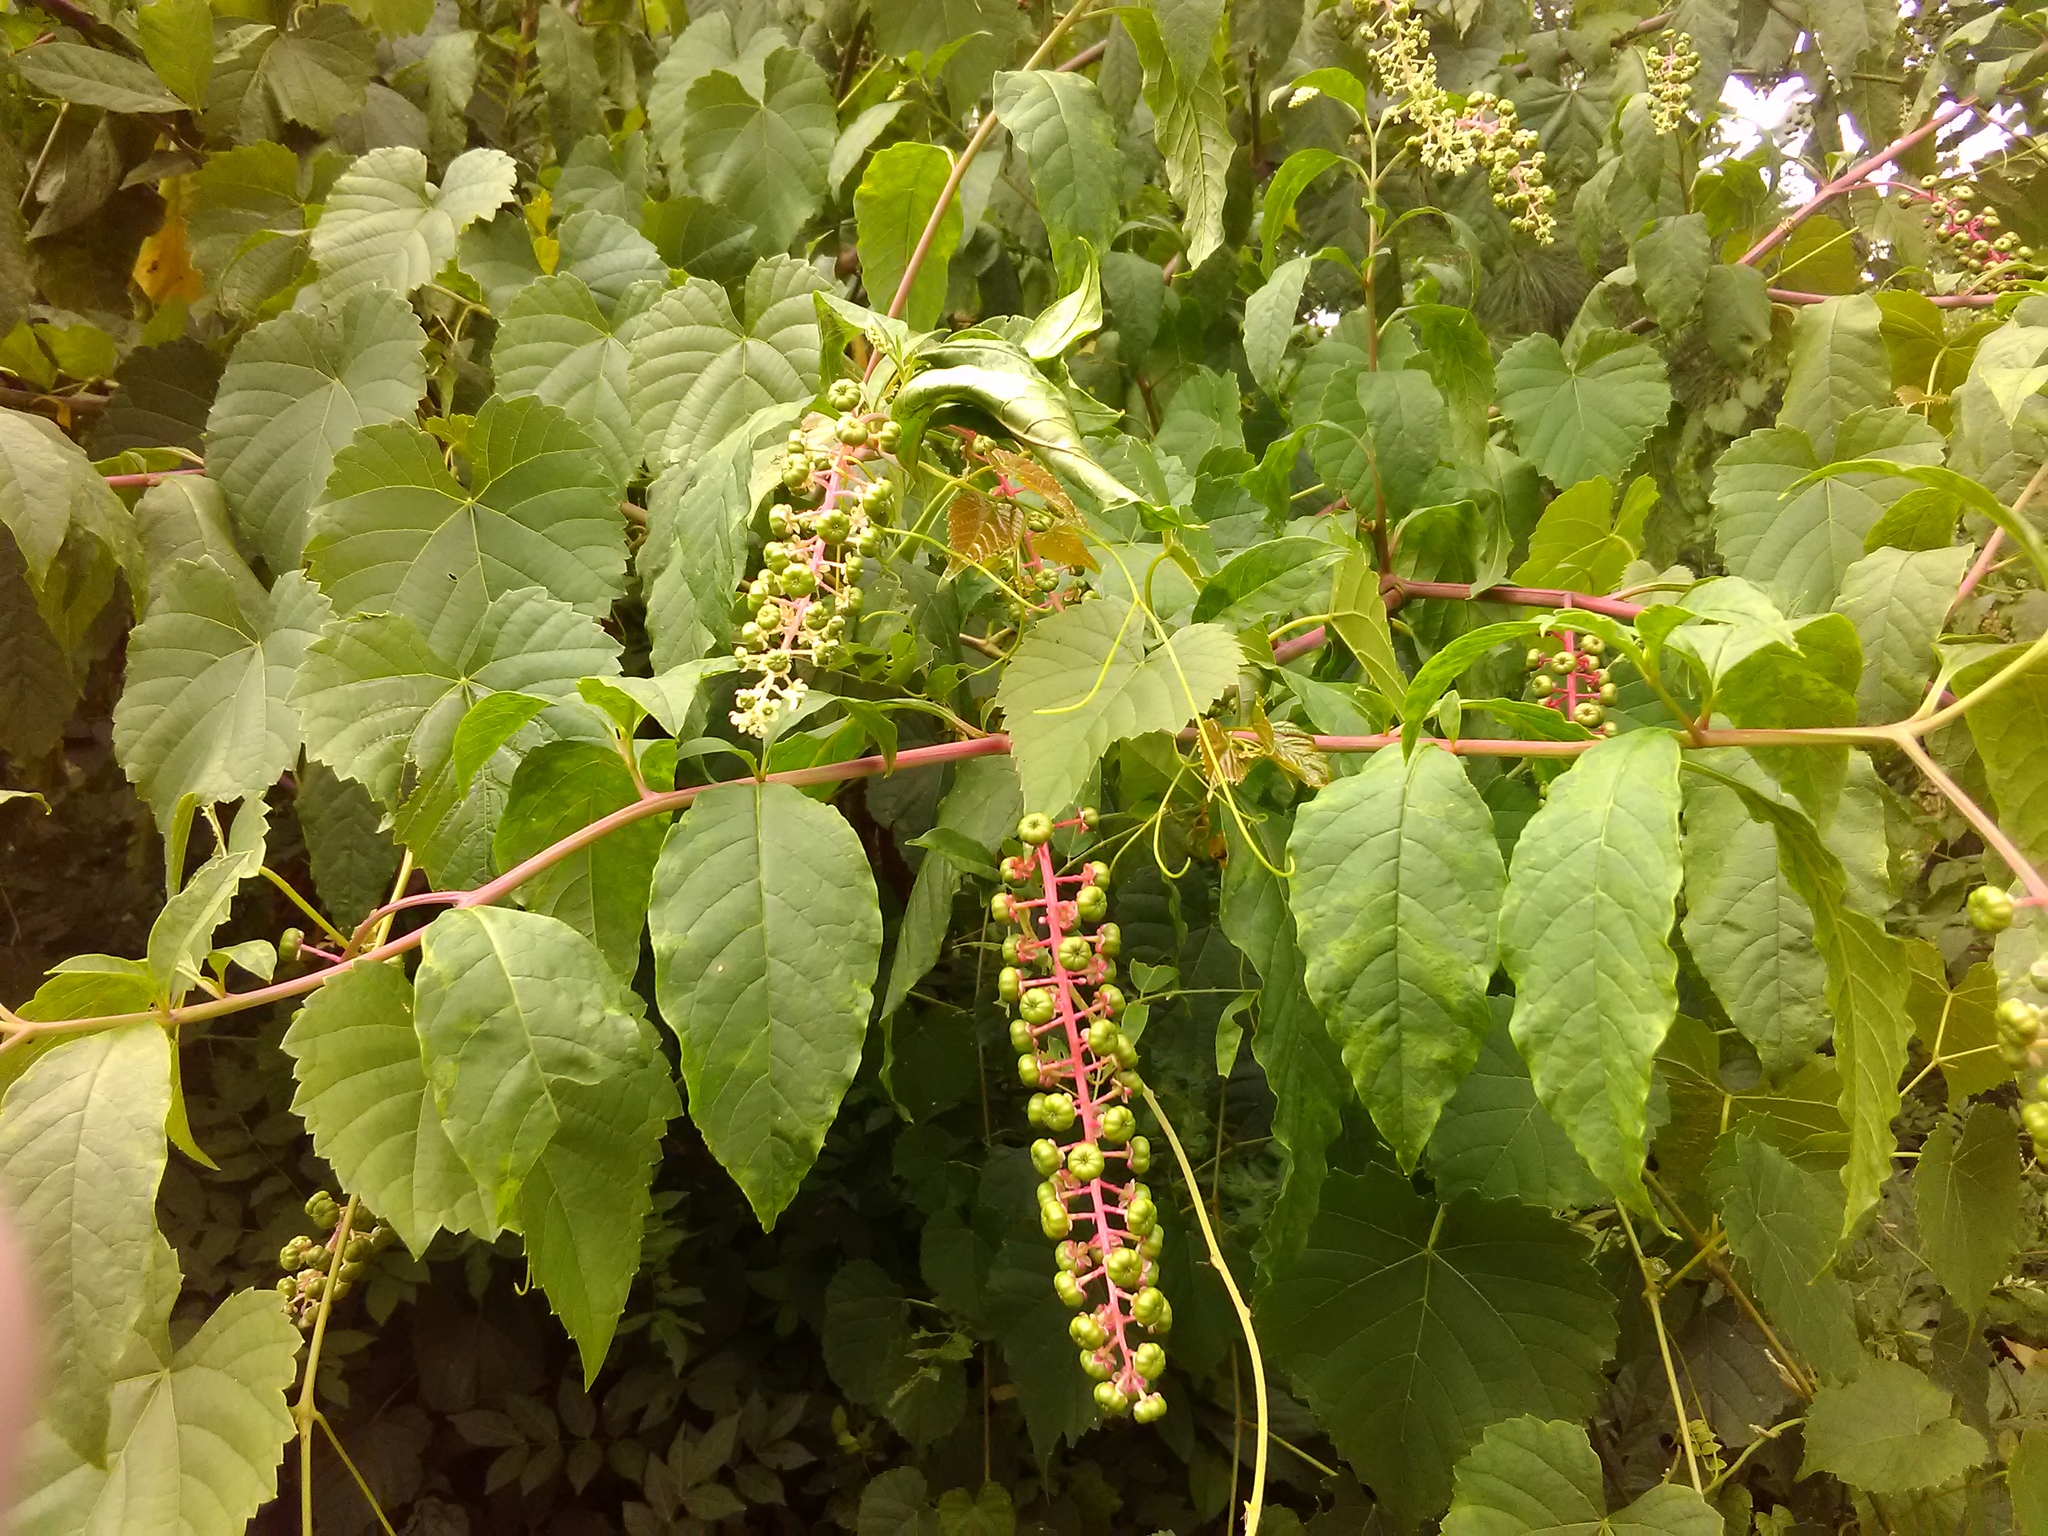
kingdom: Plantae
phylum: Tracheophyta
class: Magnoliopsida
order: Caryophyllales
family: Phytolaccaceae
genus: Phytolacca
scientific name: Phytolacca americana
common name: American pokeweed
